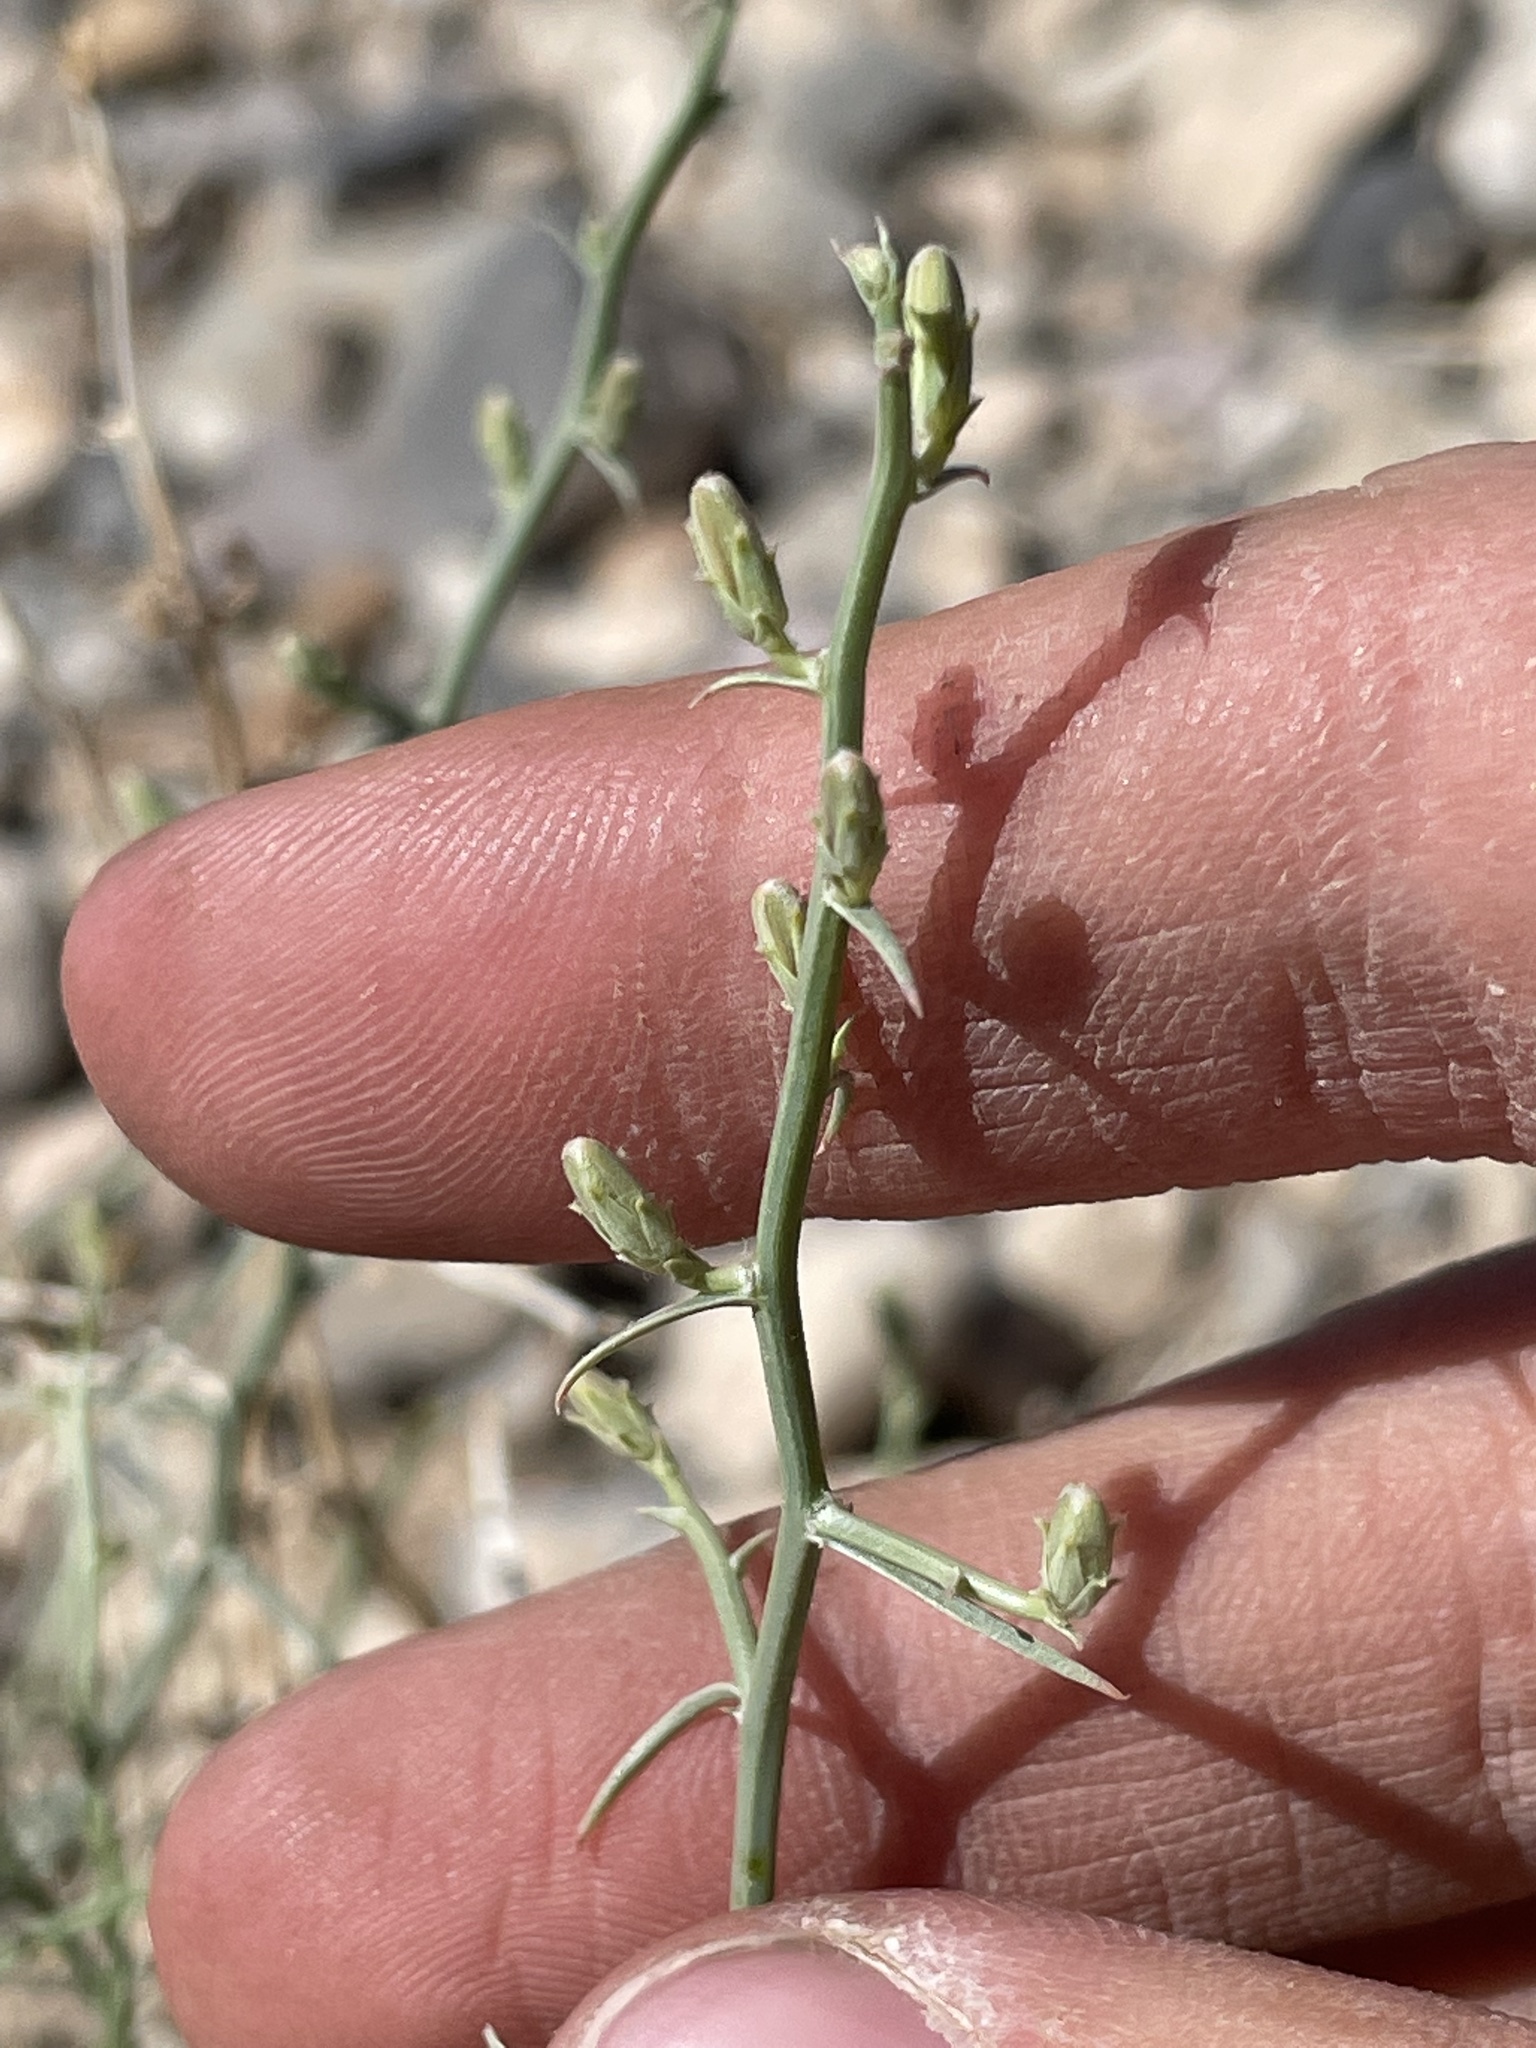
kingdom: Plantae
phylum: Tracheophyta
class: Magnoliopsida
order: Asterales
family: Asteraceae
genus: Stephanomeria
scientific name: Stephanomeria pauciflora
